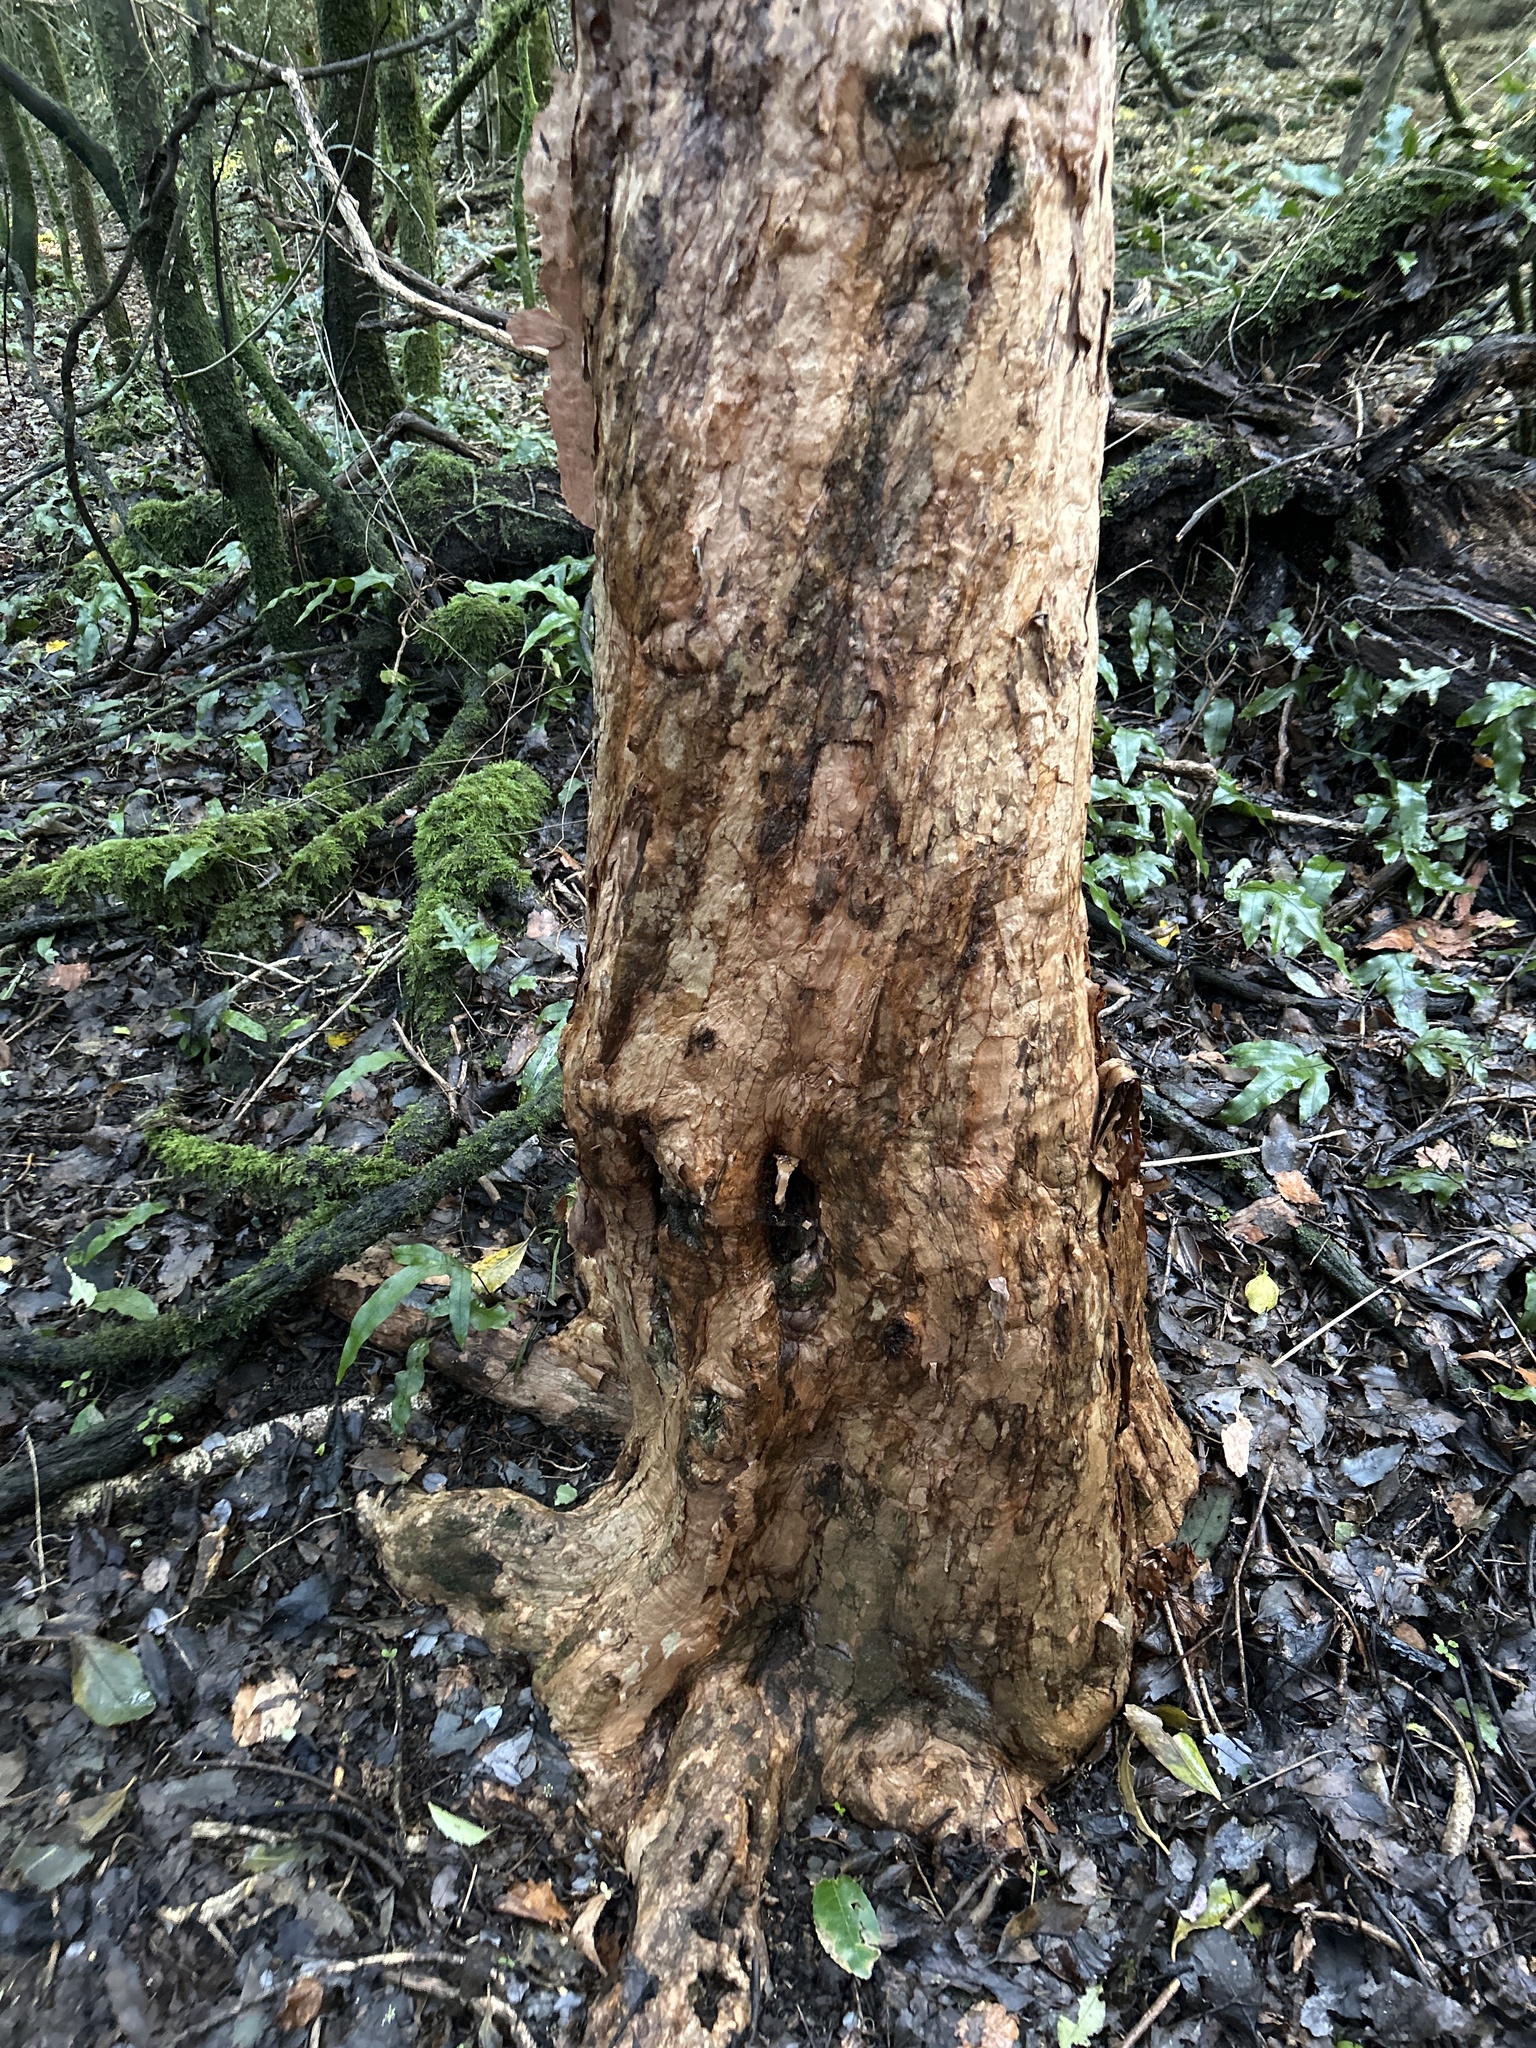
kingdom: Plantae
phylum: Tracheophyta
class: Magnoliopsida
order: Myrtales
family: Onagraceae
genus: Fuchsia
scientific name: Fuchsia excorticata
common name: Tree fuchsia
